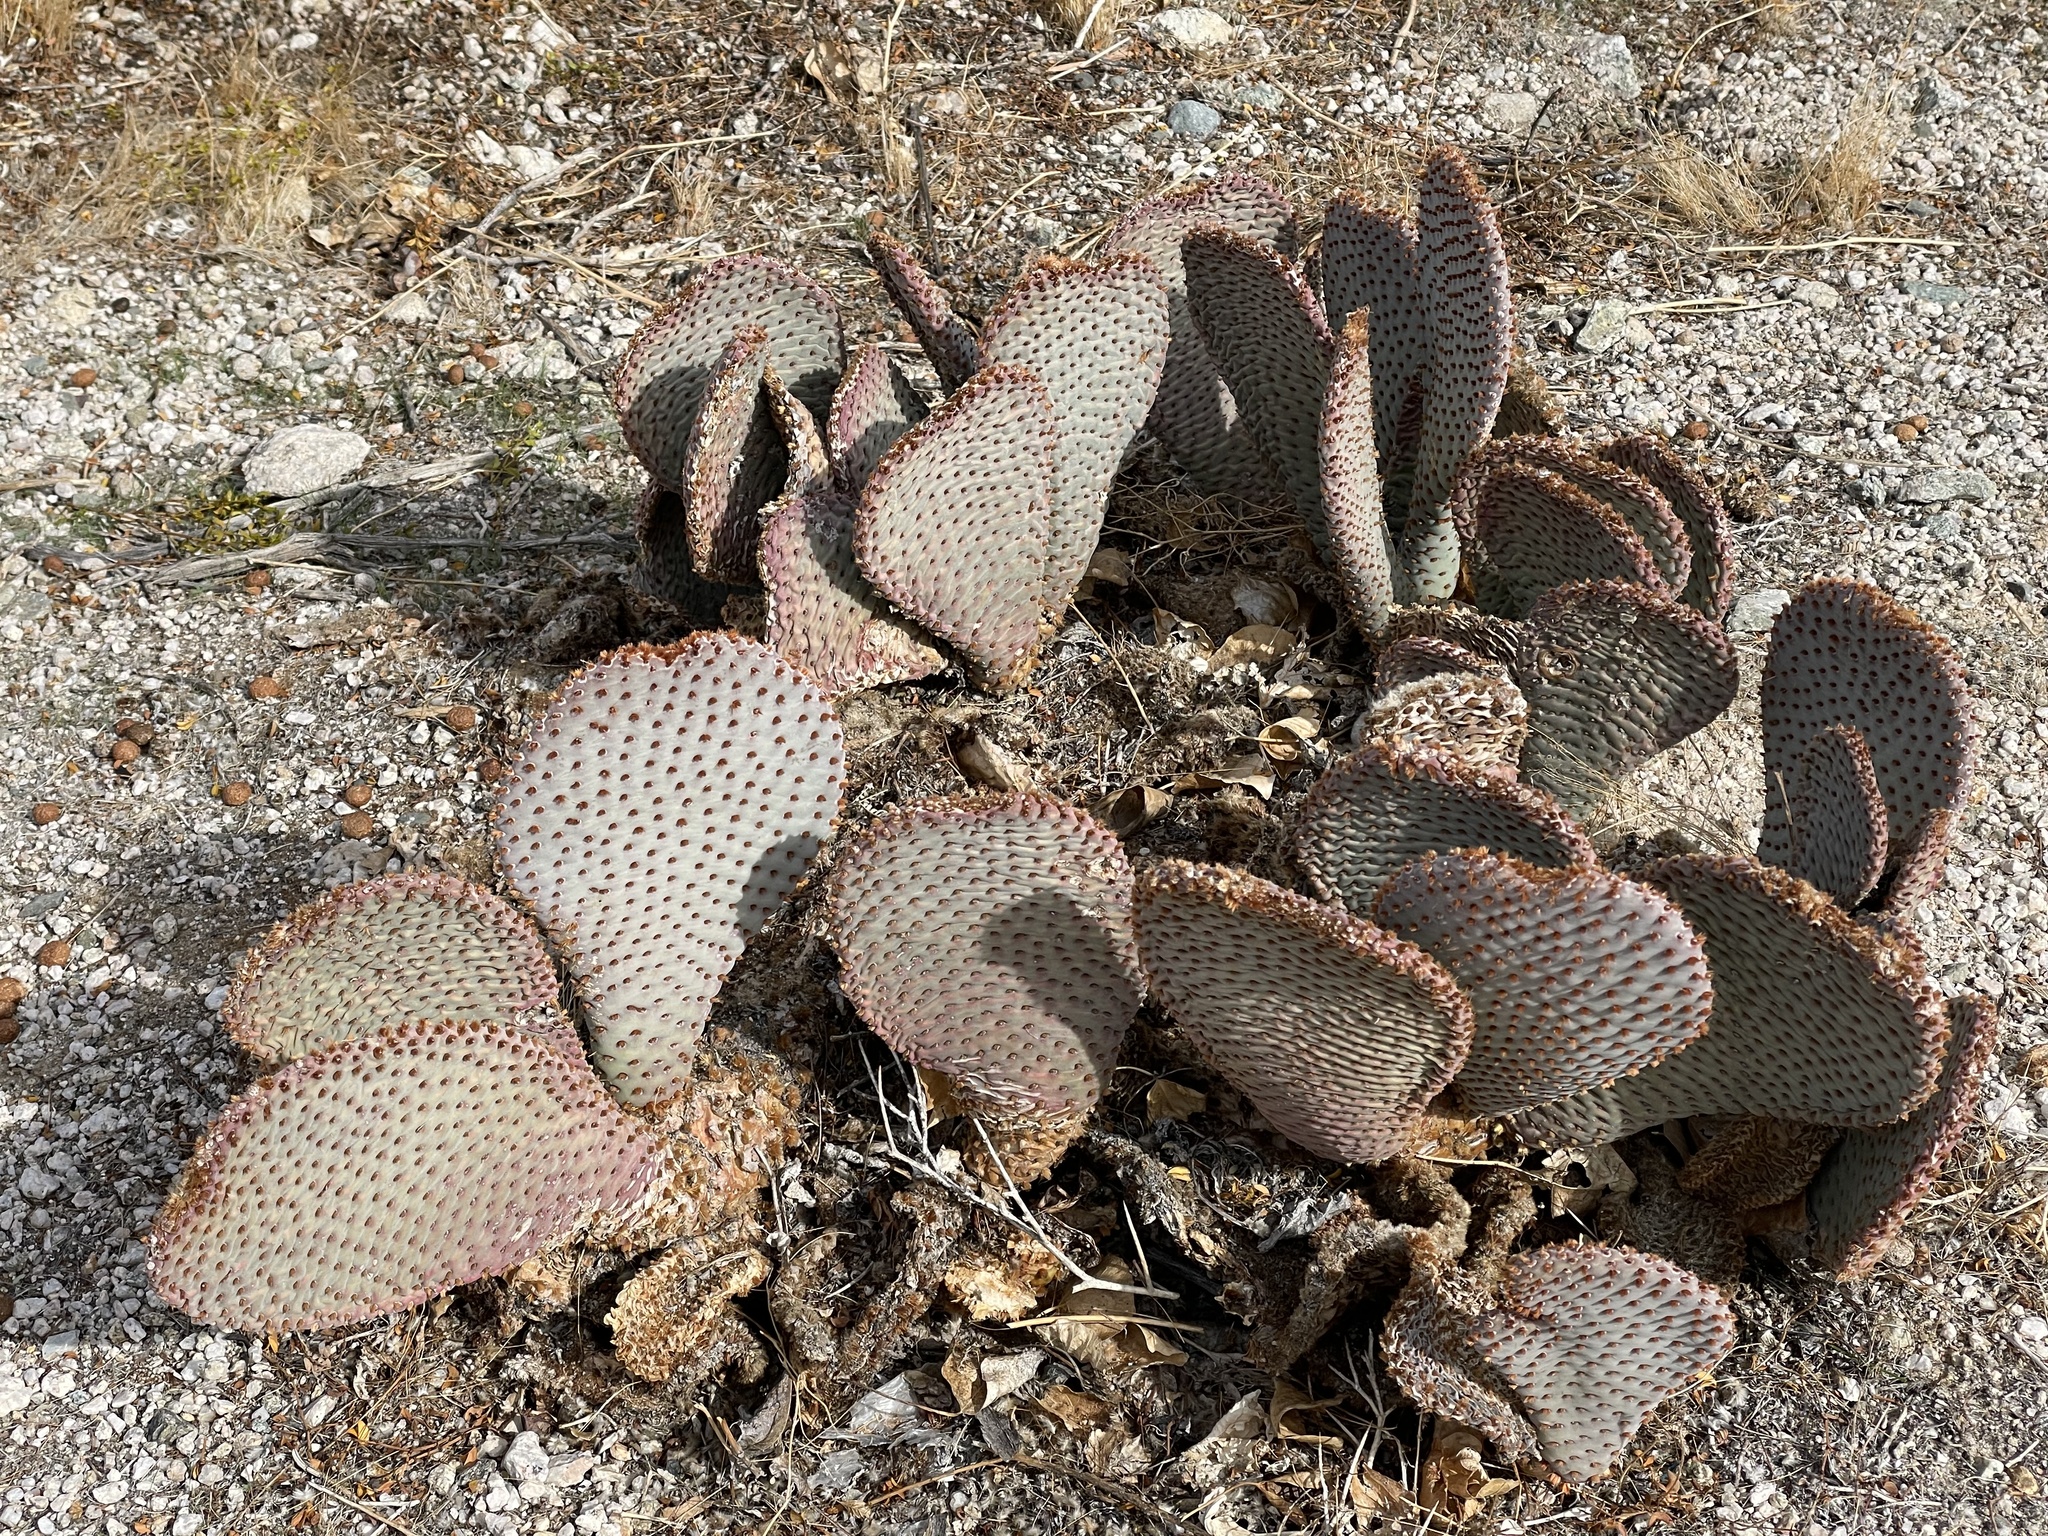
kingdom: Plantae
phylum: Tracheophyta
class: Magnoliopsida
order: Caryophyllales
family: Cactaceae
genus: Opuntia
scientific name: Opuntia basilaris
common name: Beavertail prickly-pear
